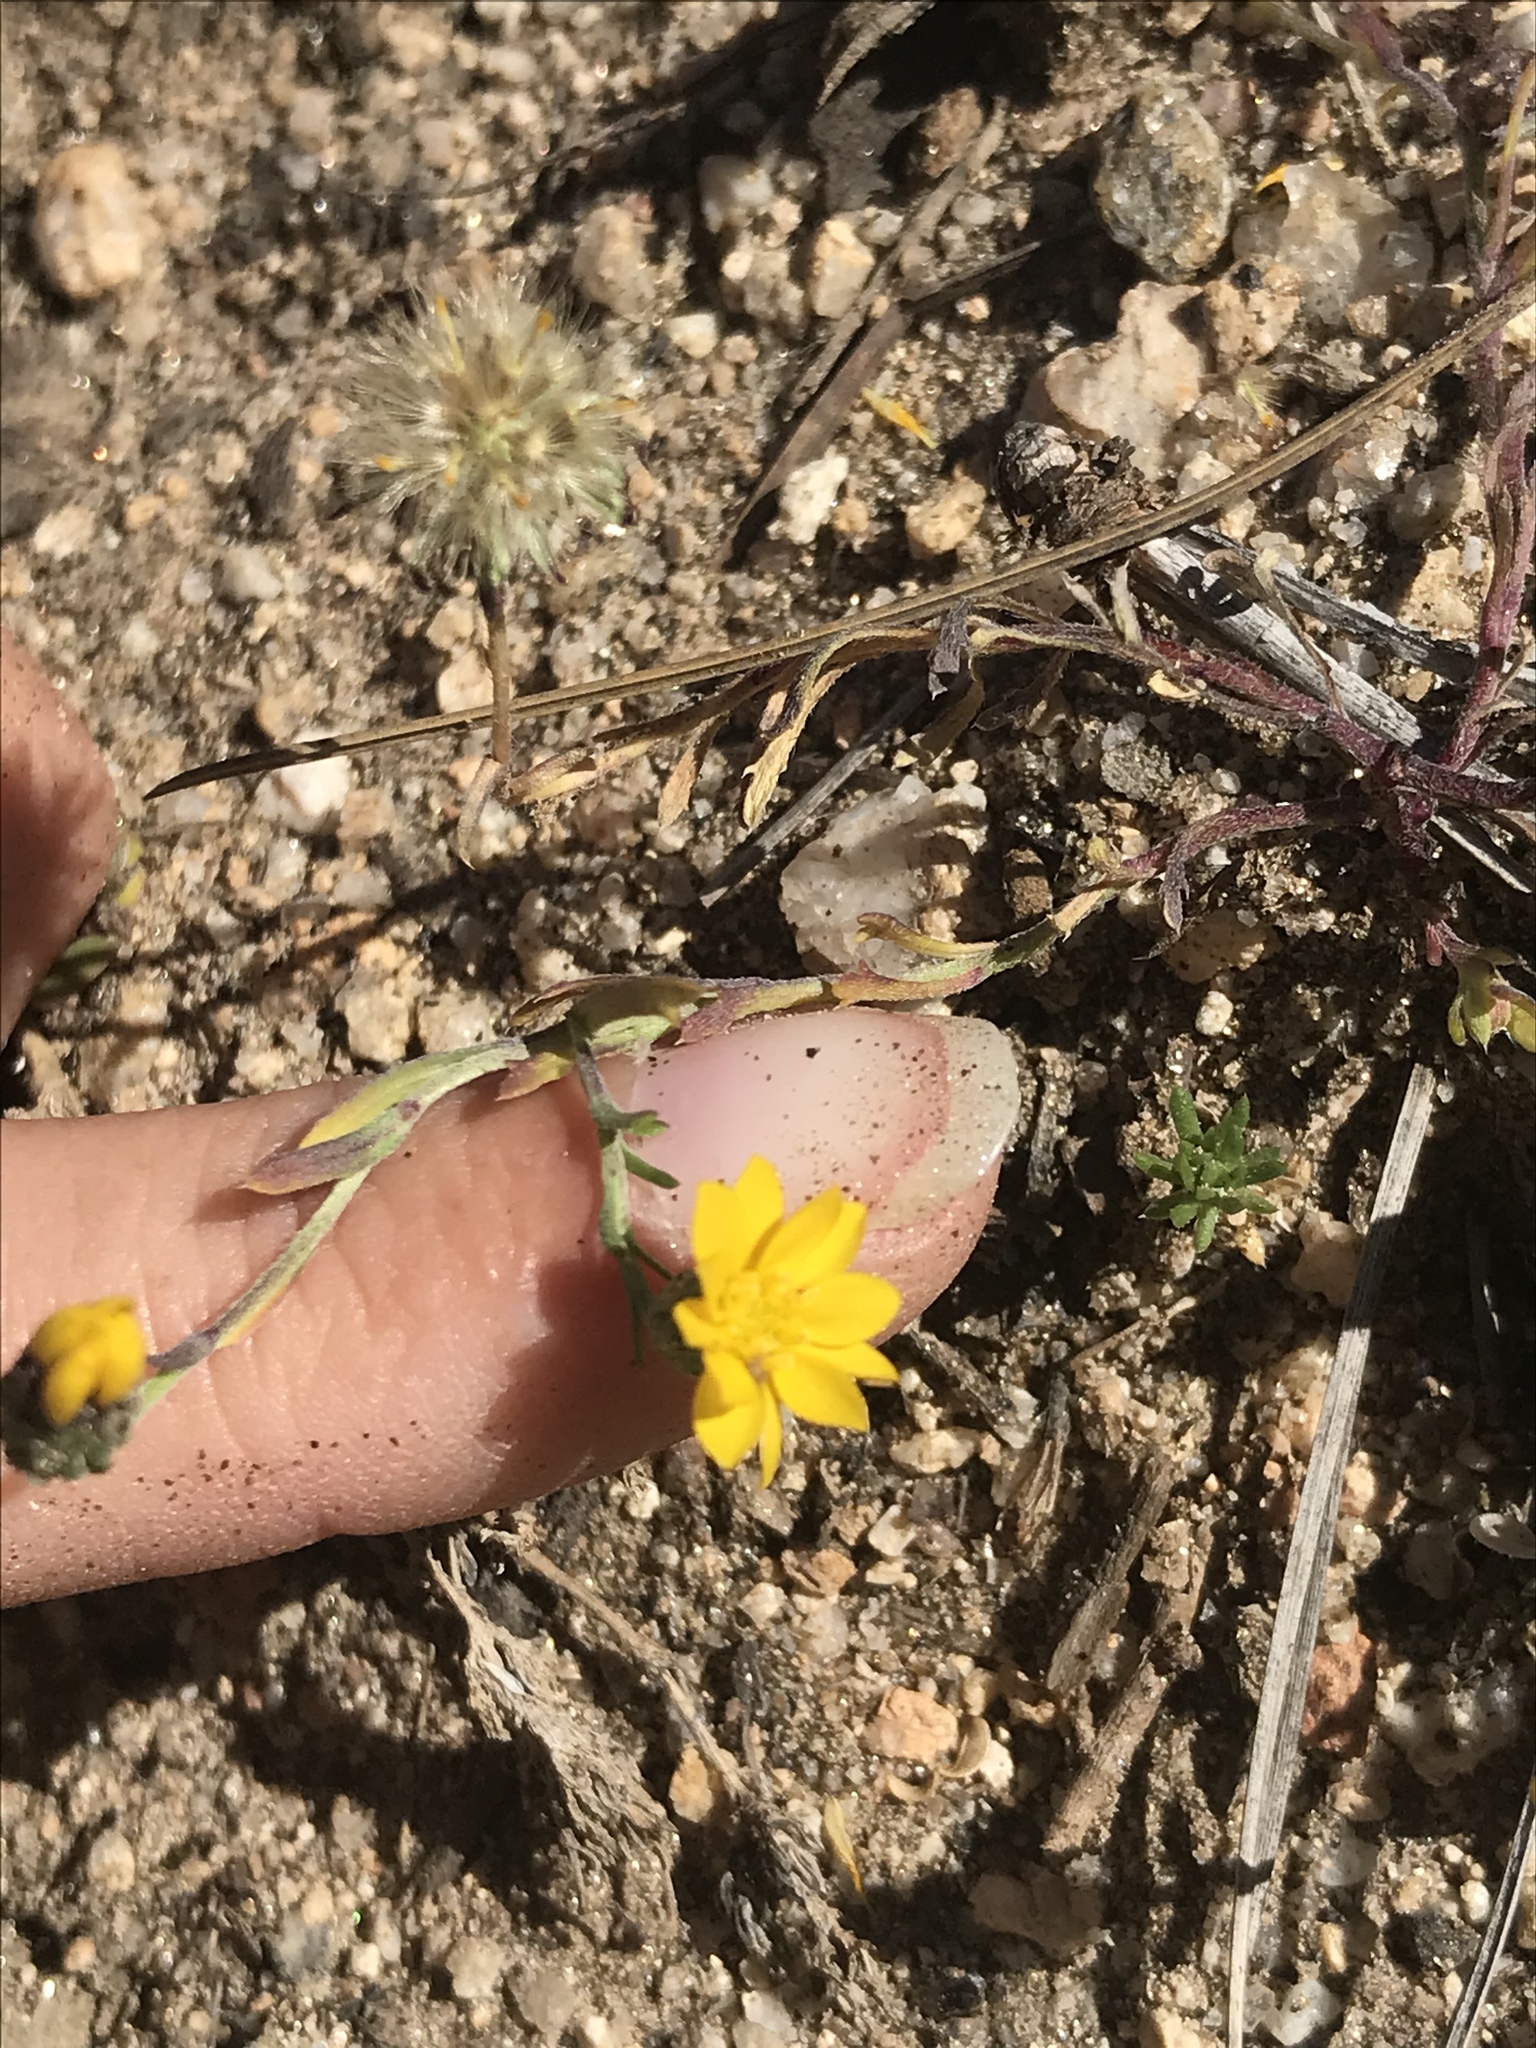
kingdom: Plantae
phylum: Tracheophyta
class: Magnoliopsida
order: Asterales
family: Asteraceae
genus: Xanthisma
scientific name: Xanthisma wigginsii
